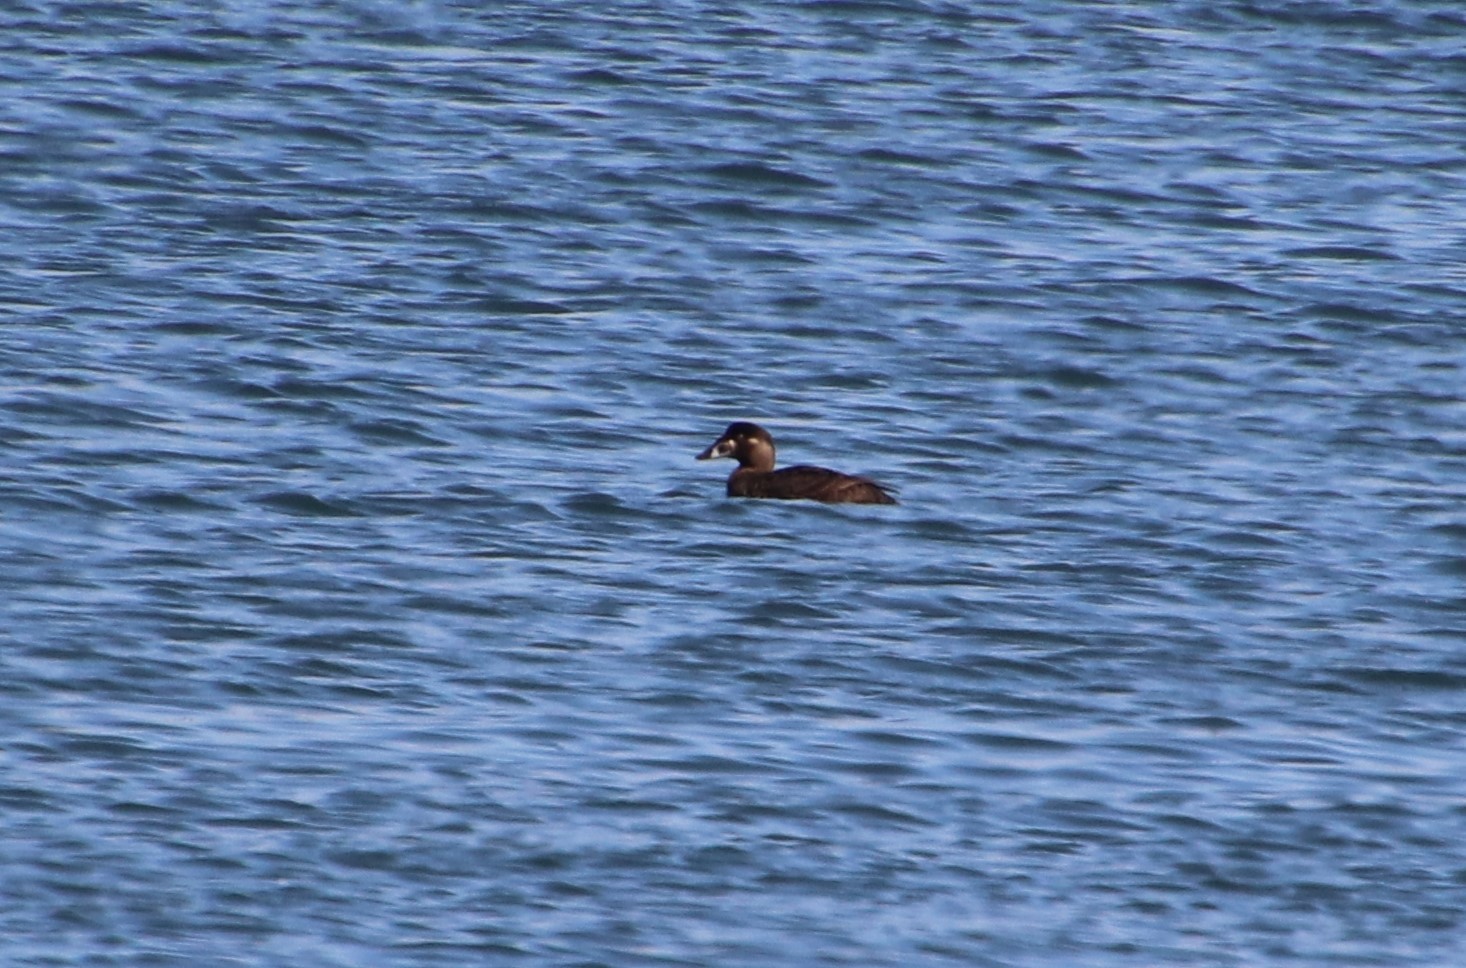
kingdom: Animalia
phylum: Chordata
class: Aves
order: Anseriformes
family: Anatidae
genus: Melanitta
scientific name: Melanitta perspicillata
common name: Surf scoter
